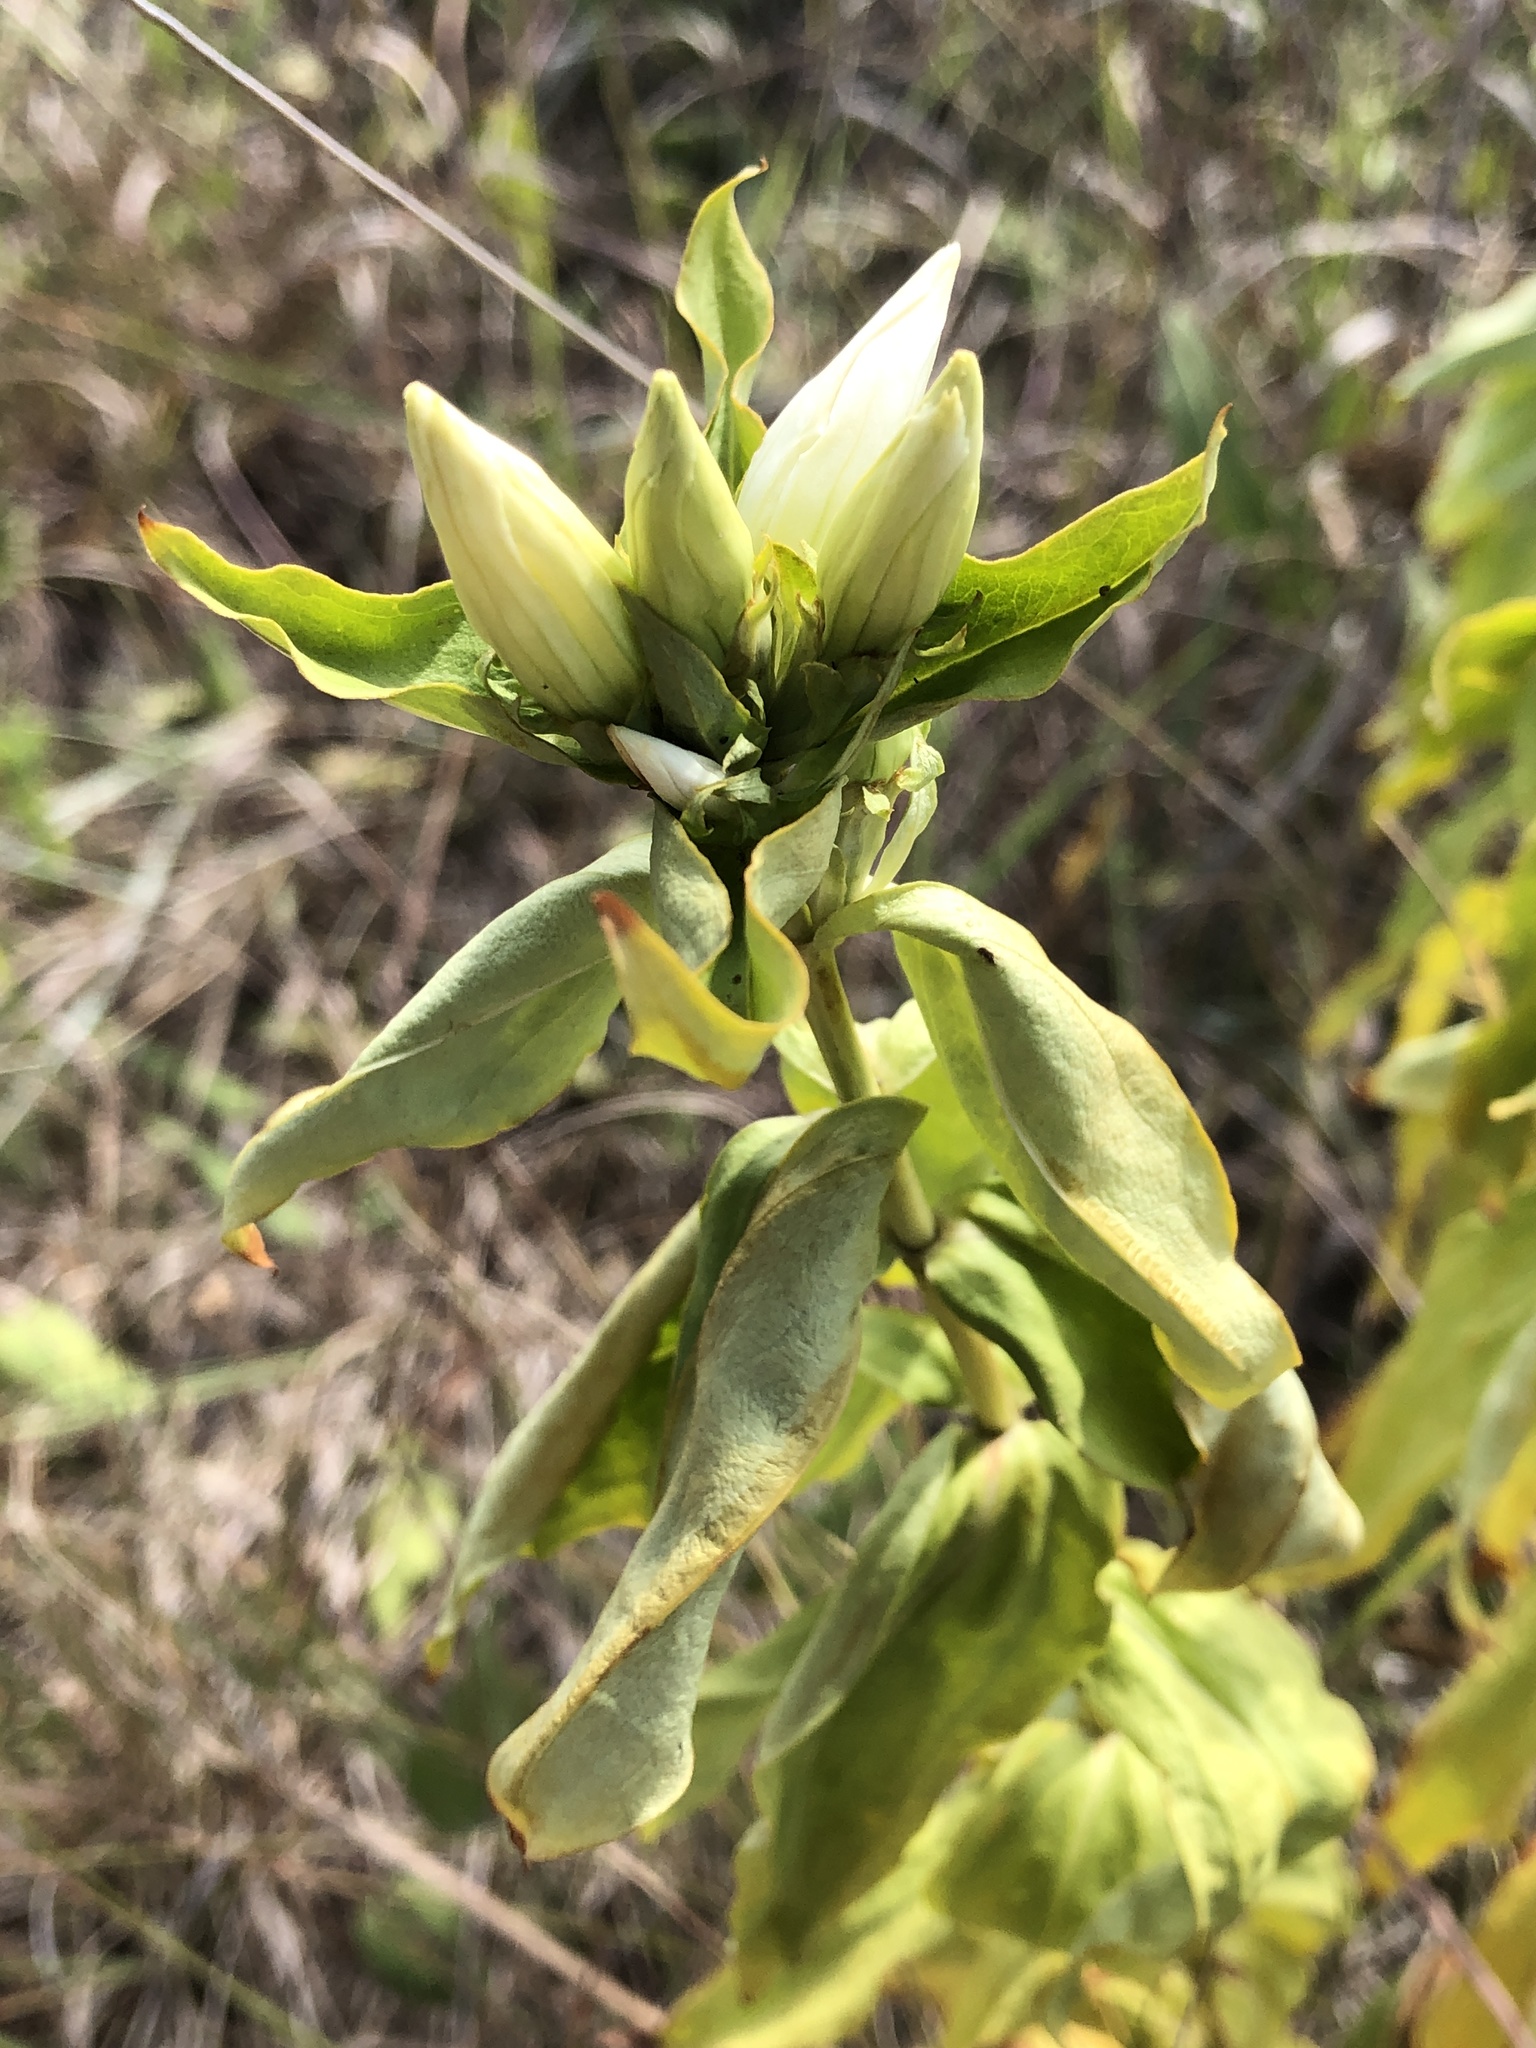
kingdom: Plantae
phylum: Tracheophyta
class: Magnoliopsida
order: Gentianales
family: Gentianaceae
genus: Gentiana
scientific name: Gentiana alba
